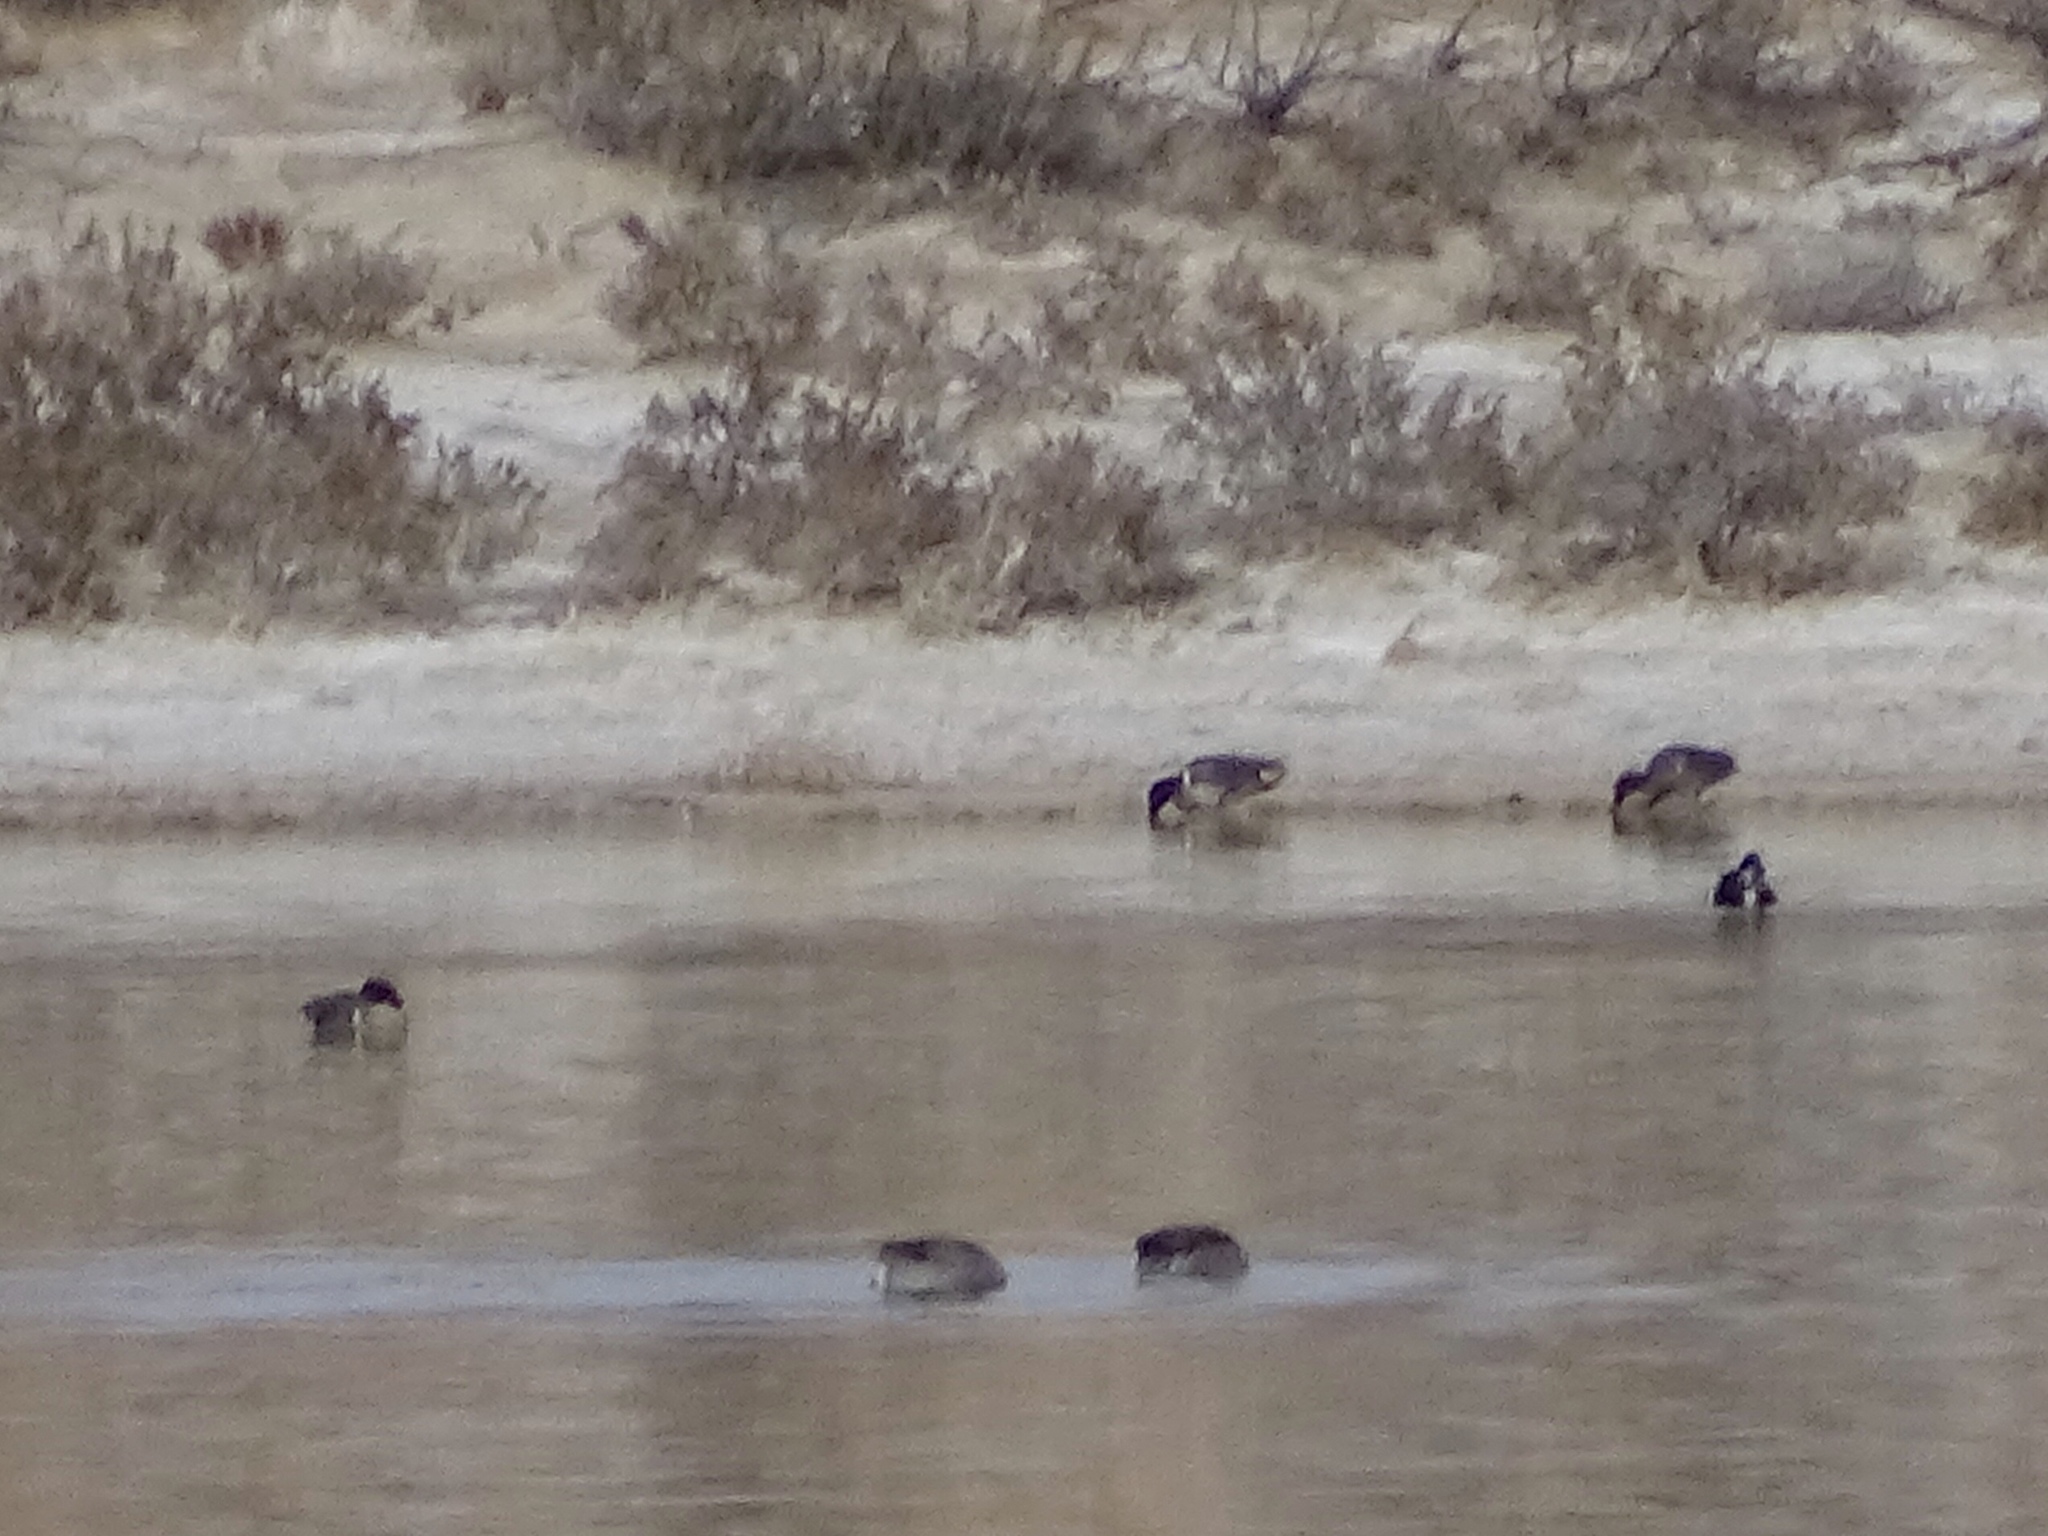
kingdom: Animalia
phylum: Chordata
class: Aves
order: Anseriformes
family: Anatidae
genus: Anas
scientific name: Anas crecca
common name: Eurasian teal
